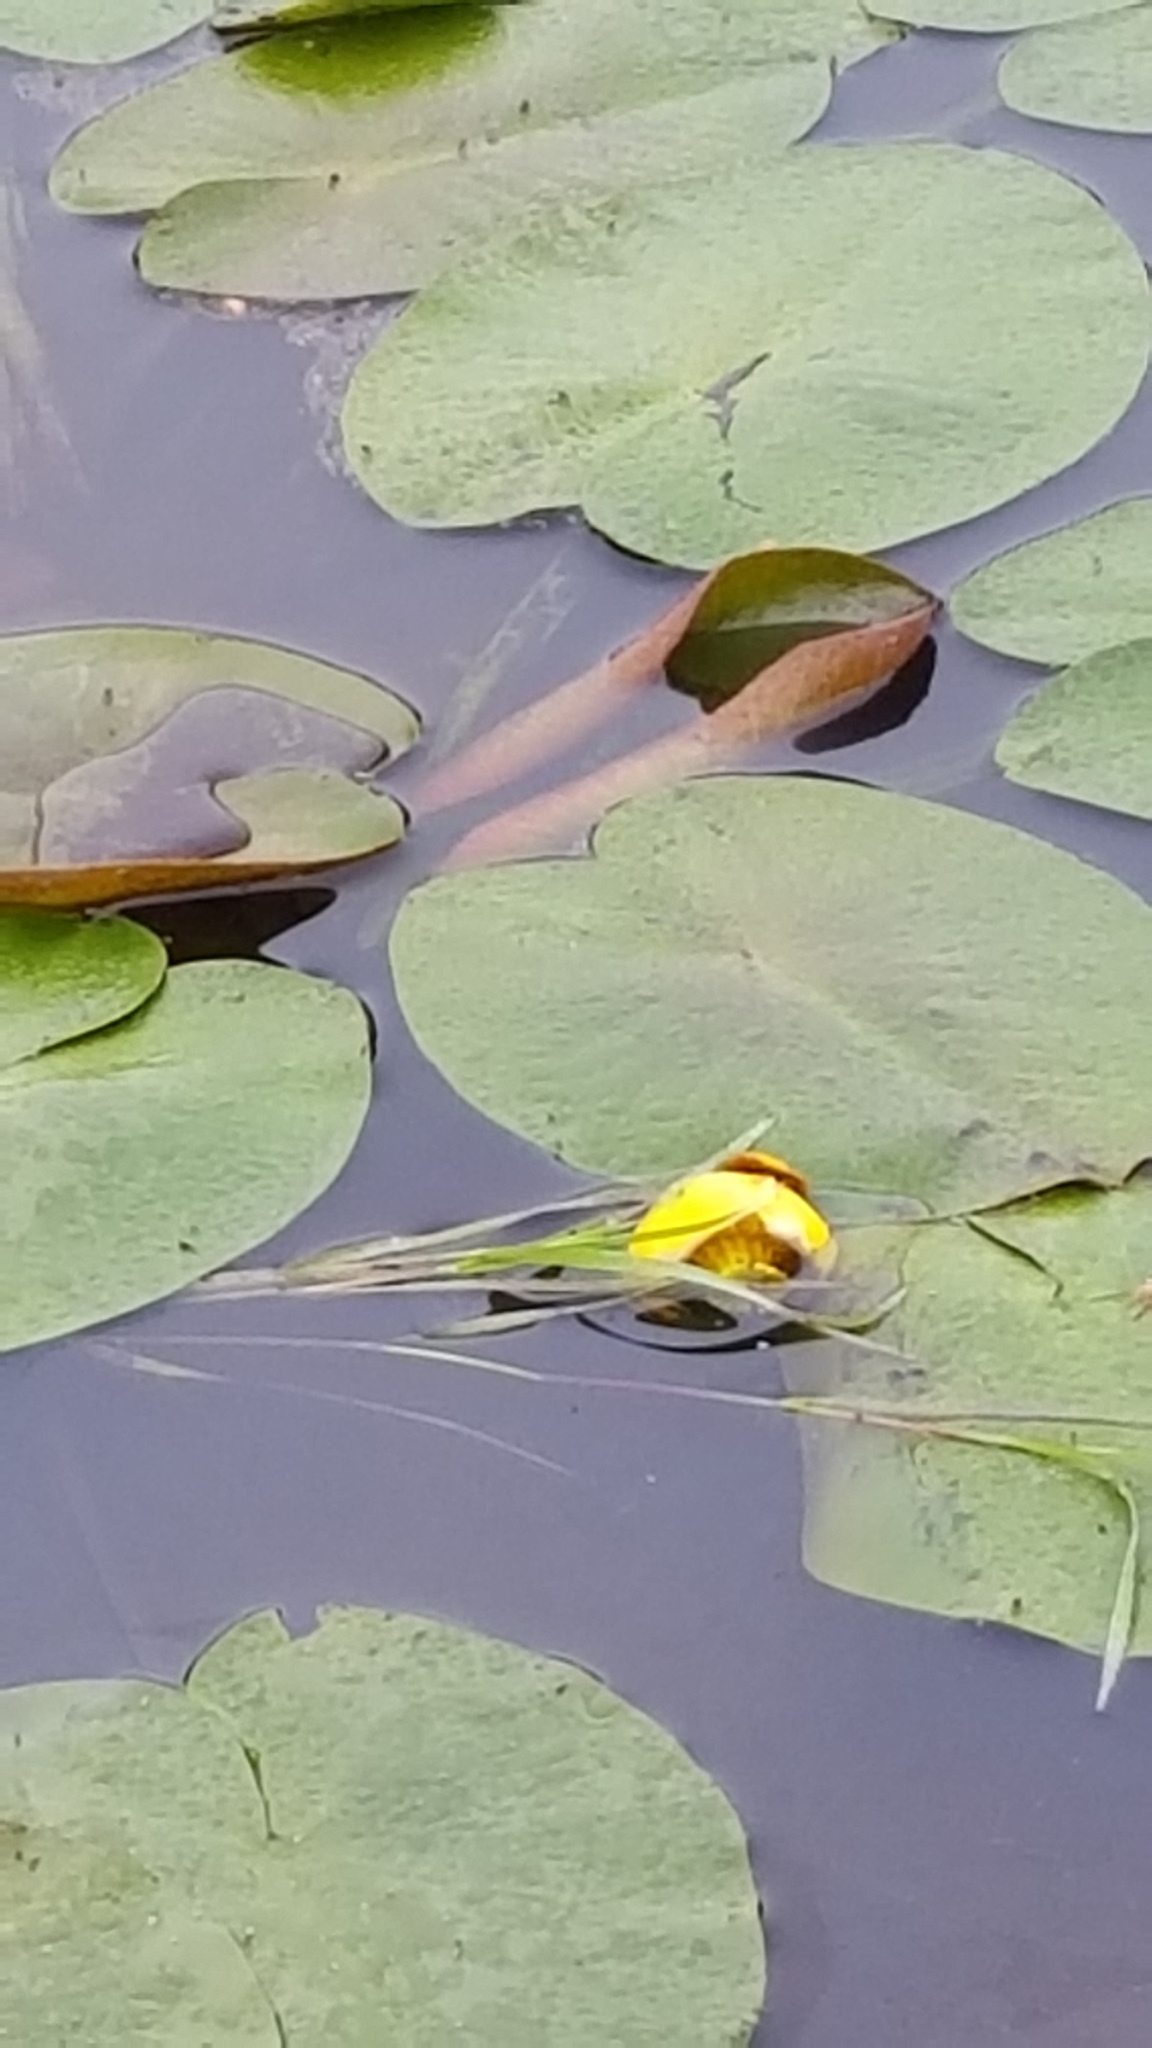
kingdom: Plantae
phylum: Tracheophyta
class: Magnoliopsida
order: Nymphaeales
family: Nymphaeaceae
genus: Nuphar
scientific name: Nuphar variegata
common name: Beaver-root
